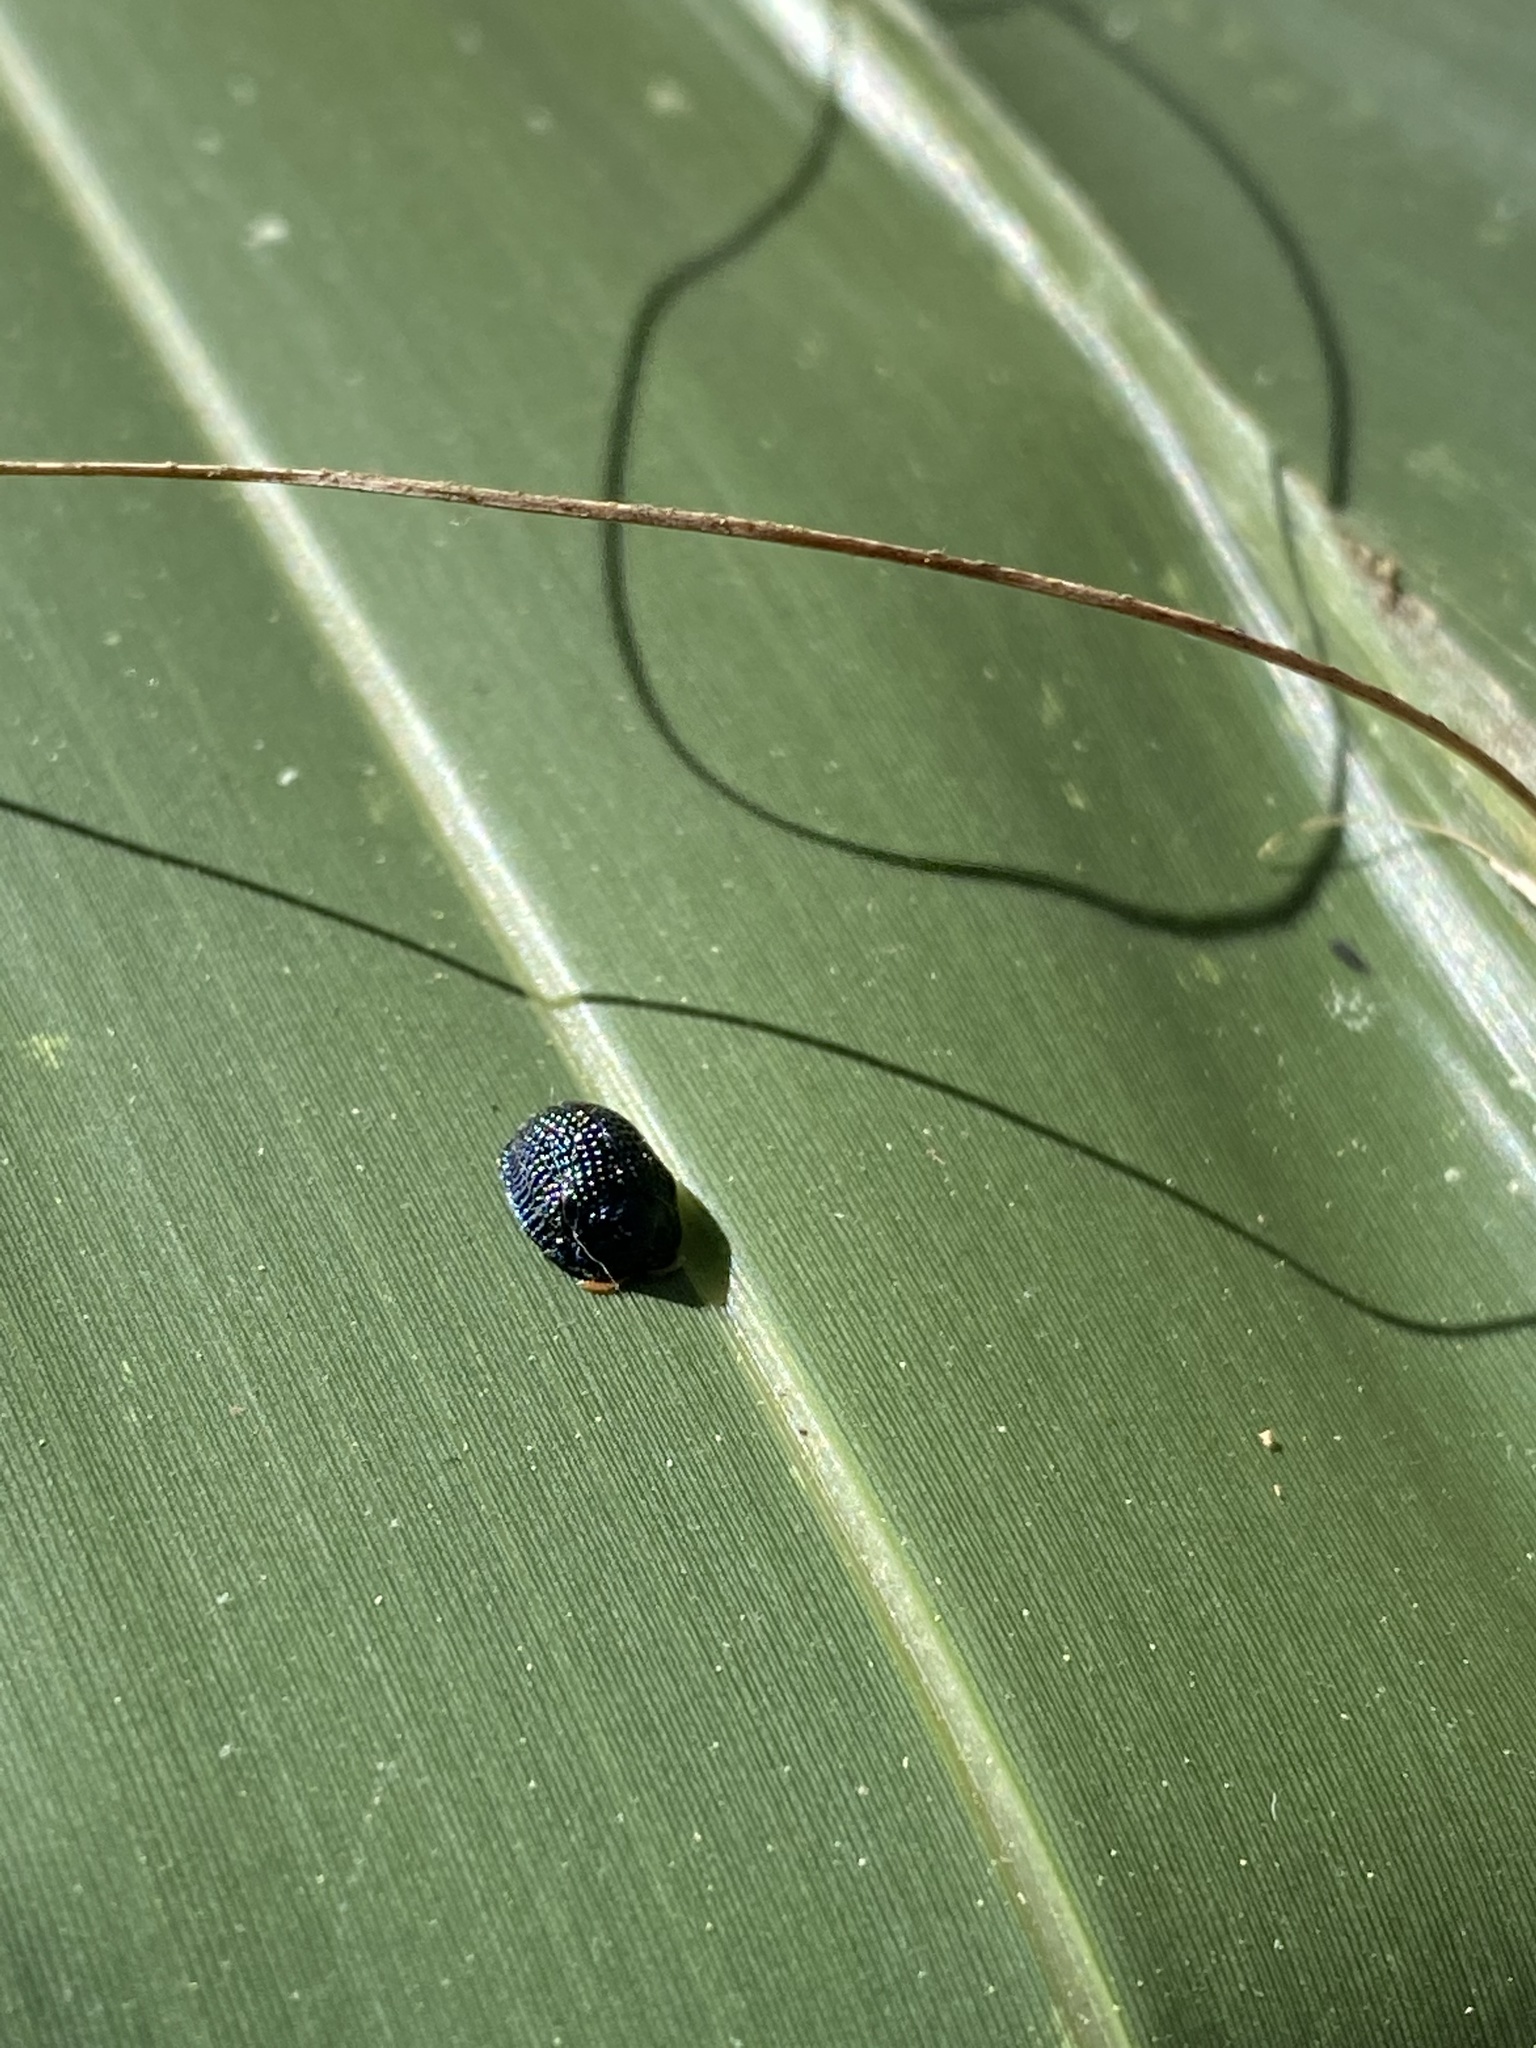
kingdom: Animalia
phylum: Arthropoda
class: Insecta
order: Coleoptera
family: Chrysomelidae
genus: Hemisphaerota
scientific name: Hemisphaerota cyanea
